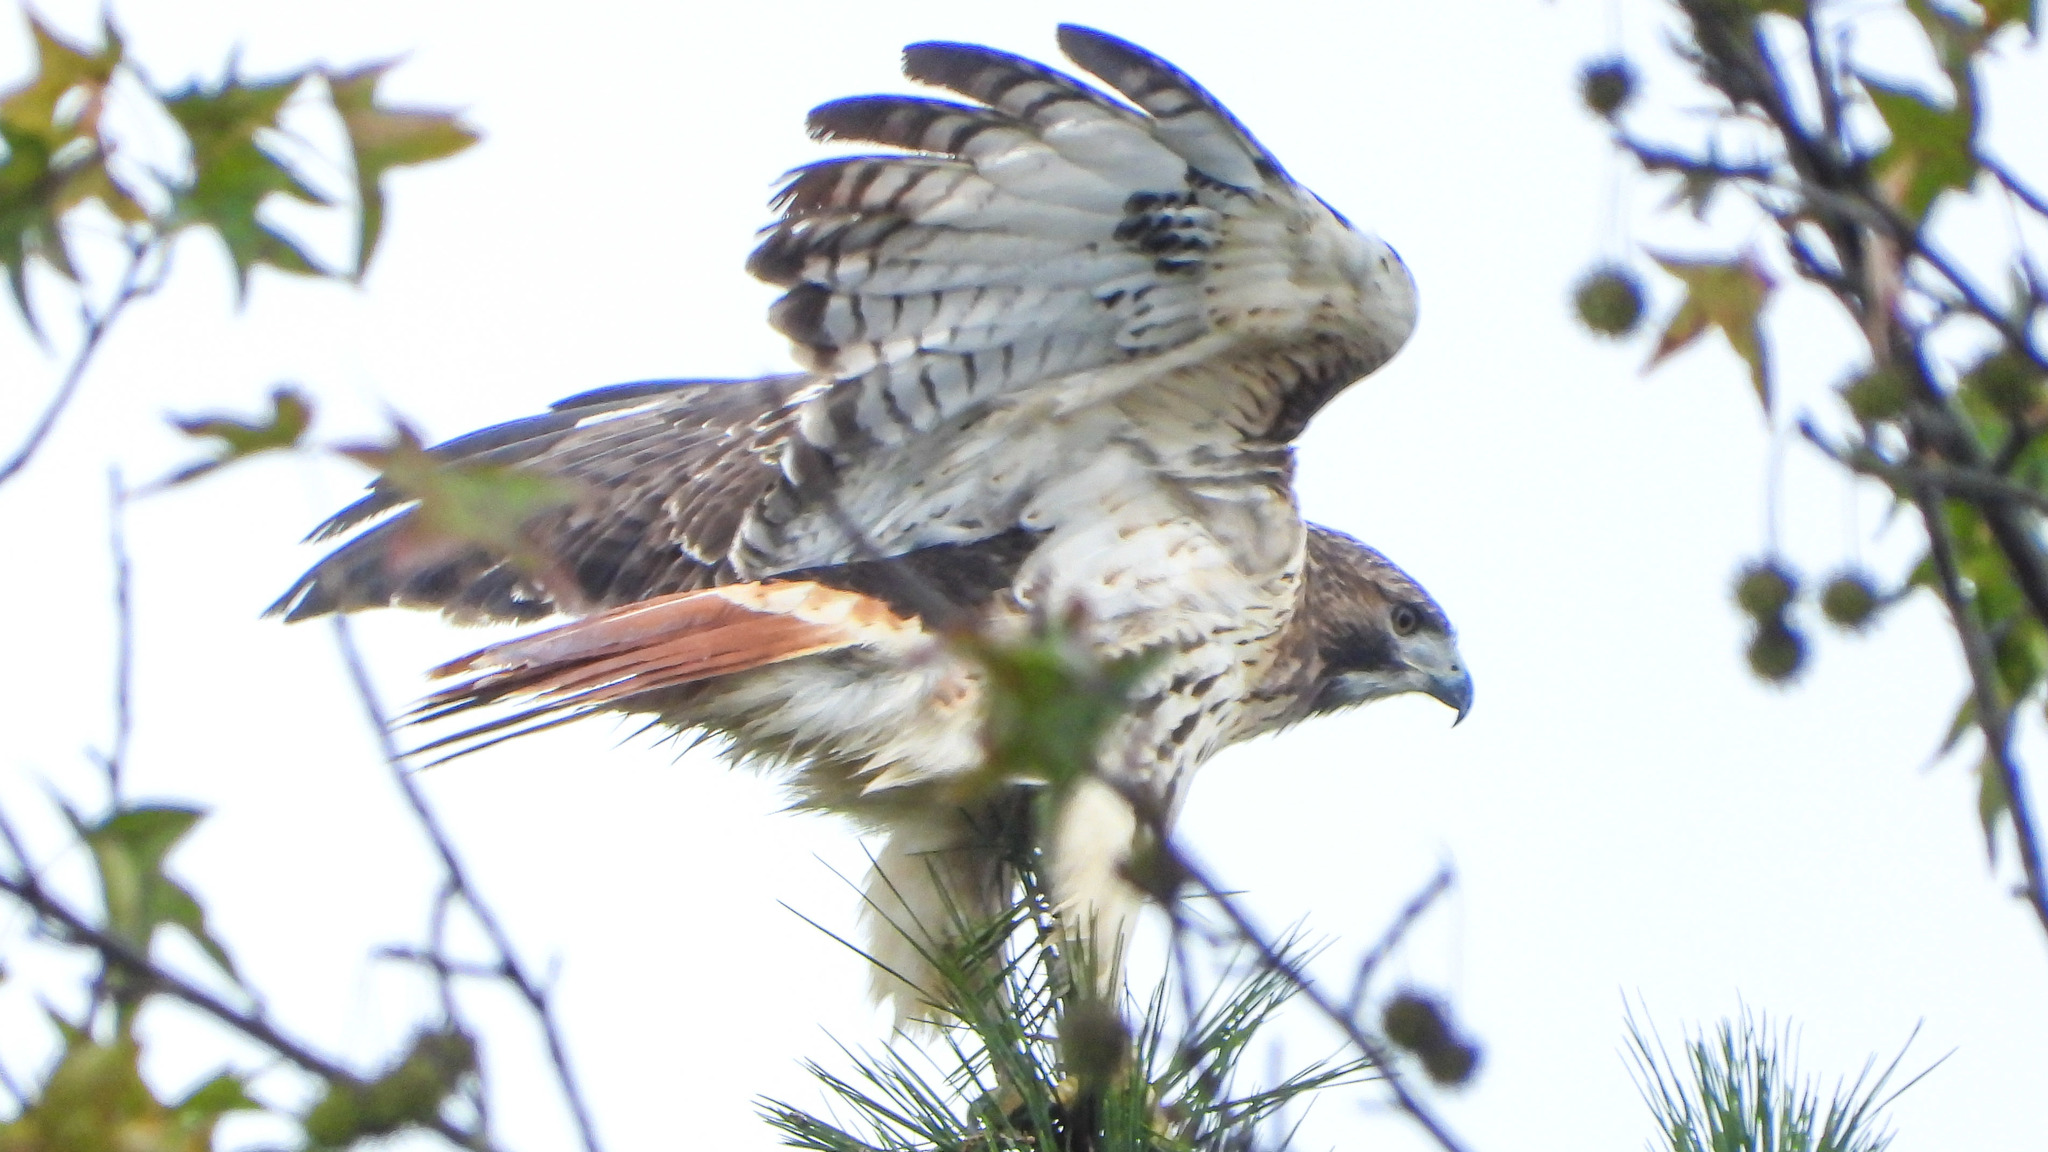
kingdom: Animalia
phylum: Chordata
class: Aves
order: Accipitriformes
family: Accipitridae
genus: Buteo
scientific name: Buteo jamaicensis
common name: Red-tailed hawk
